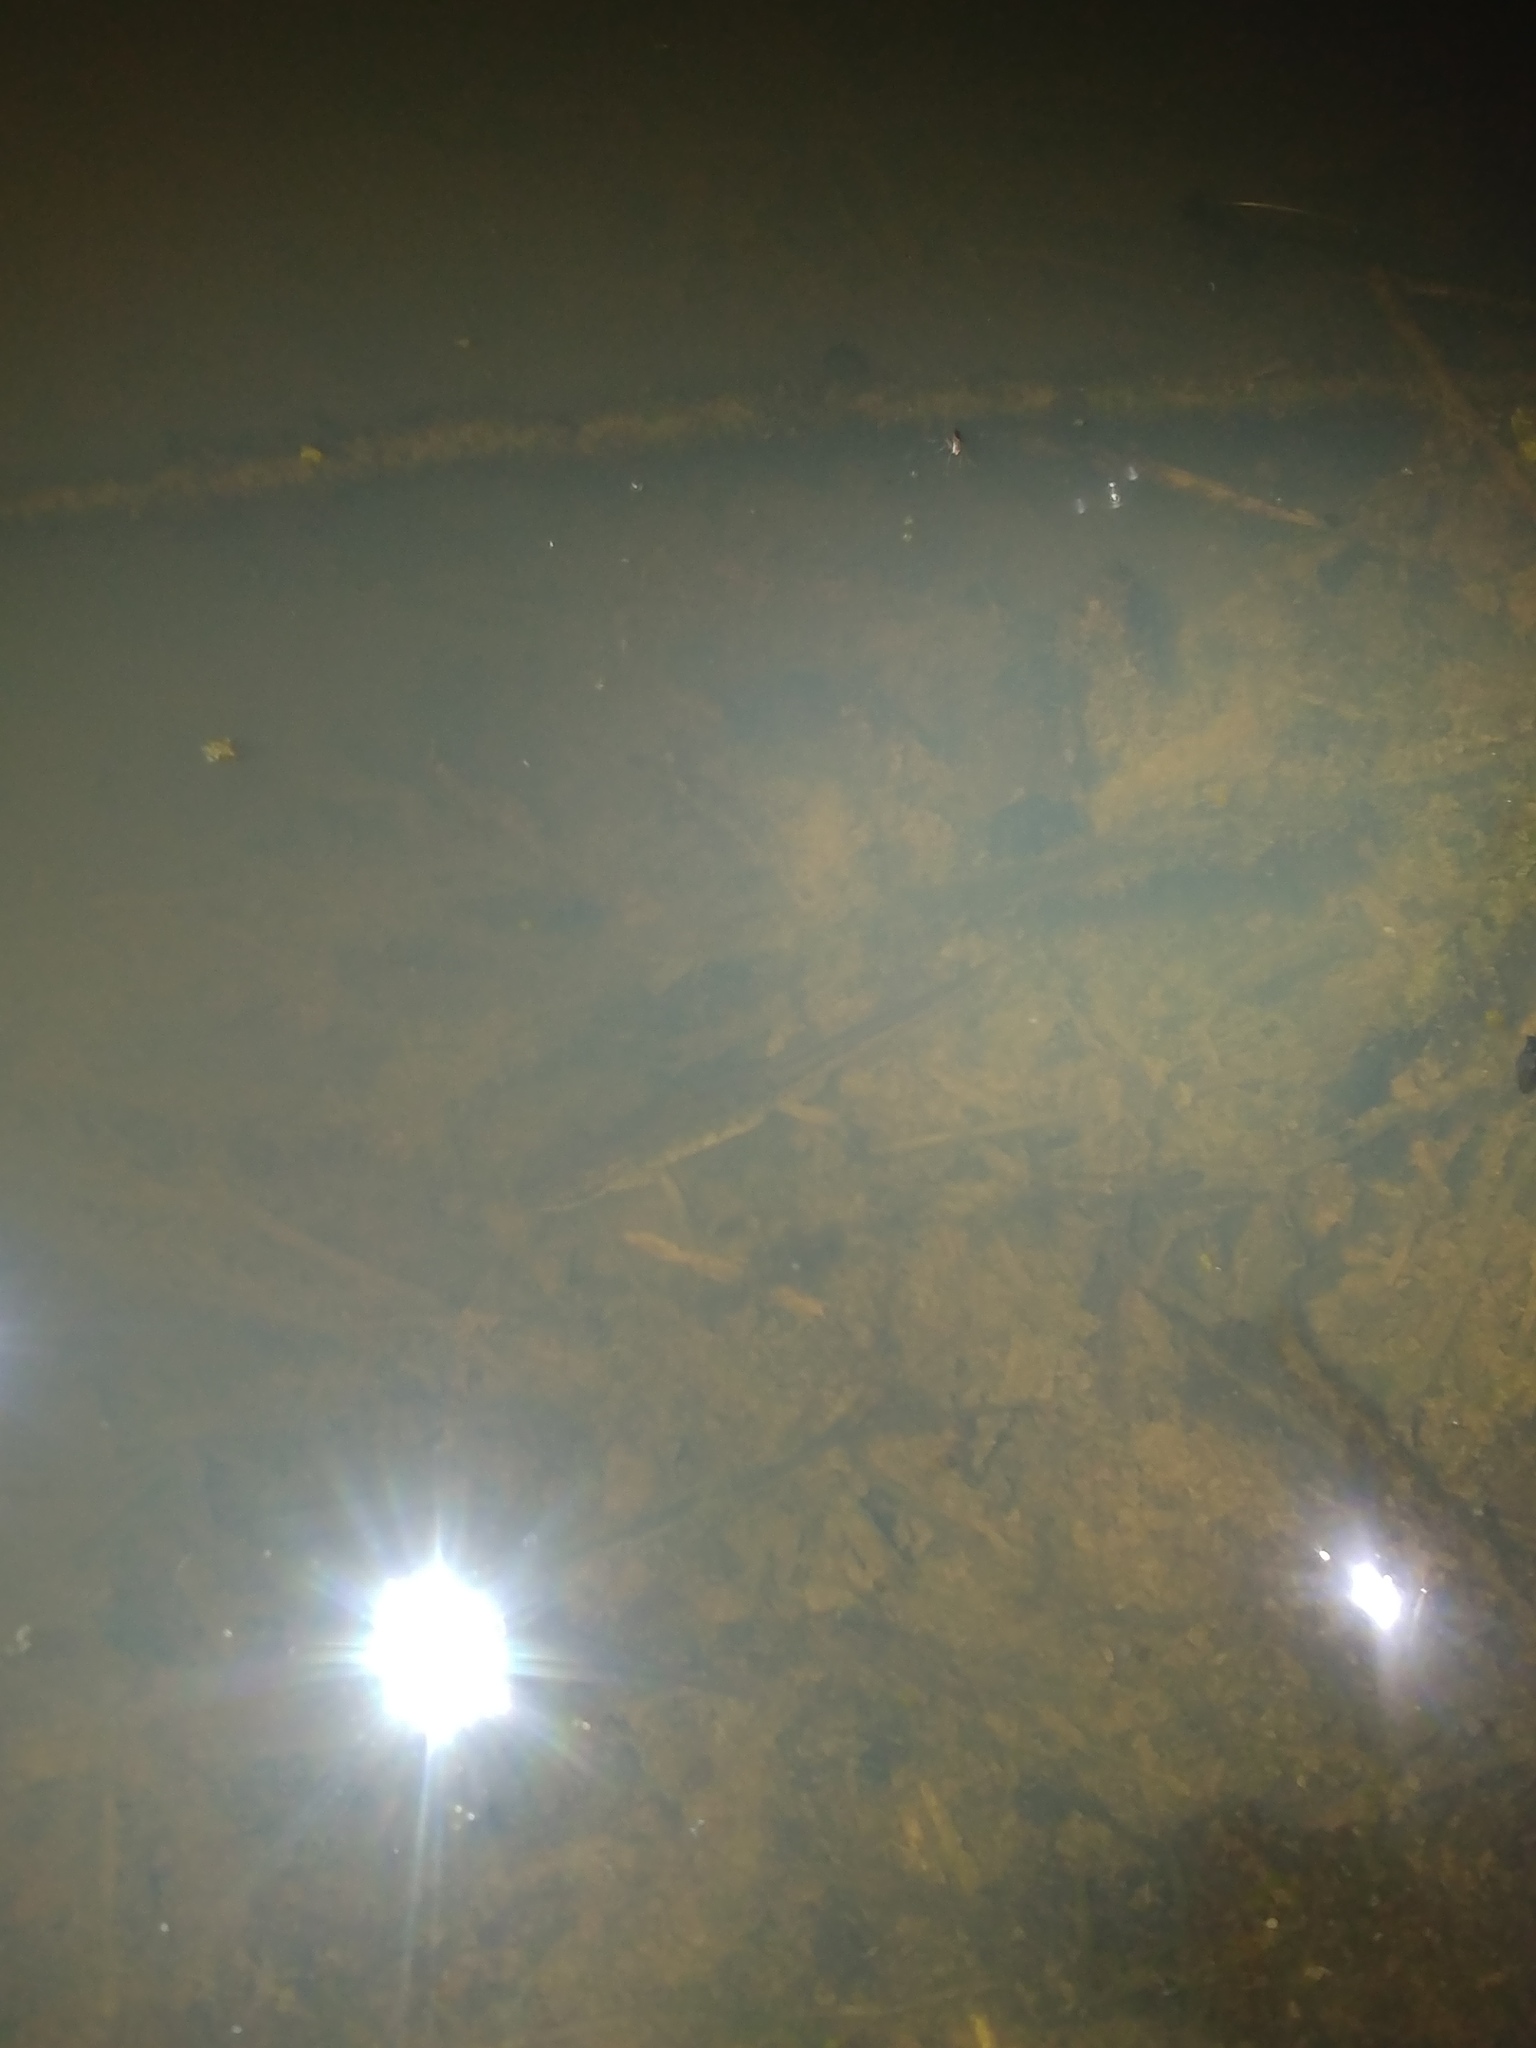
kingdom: Animalia
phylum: Chordata
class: Amphibia
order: Caudata
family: Salamandridae
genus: Lissotriton
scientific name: Lissotriton helveticus
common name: Palmate newt
